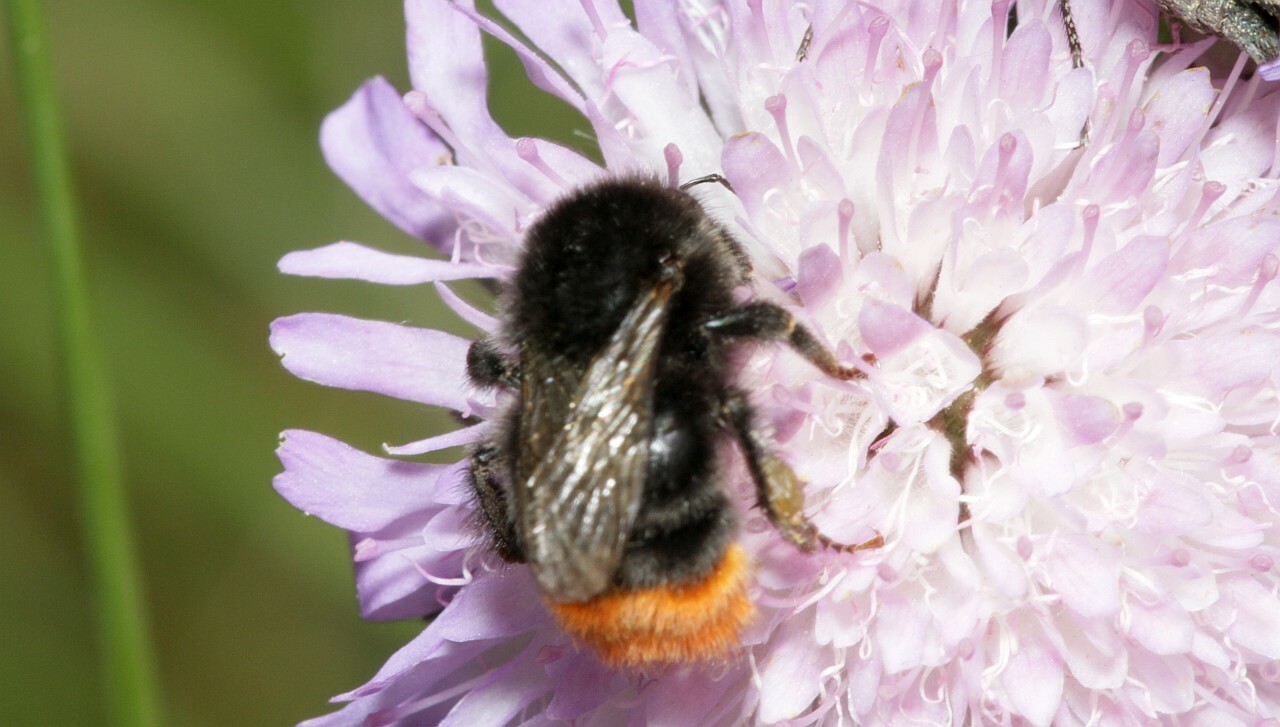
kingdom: Animalia
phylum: Arthropoda
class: Insecta
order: Hymenoptera
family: Apidae
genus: Bombus
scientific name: Bombus lapidarius
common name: Large red-tailed humble-bee
